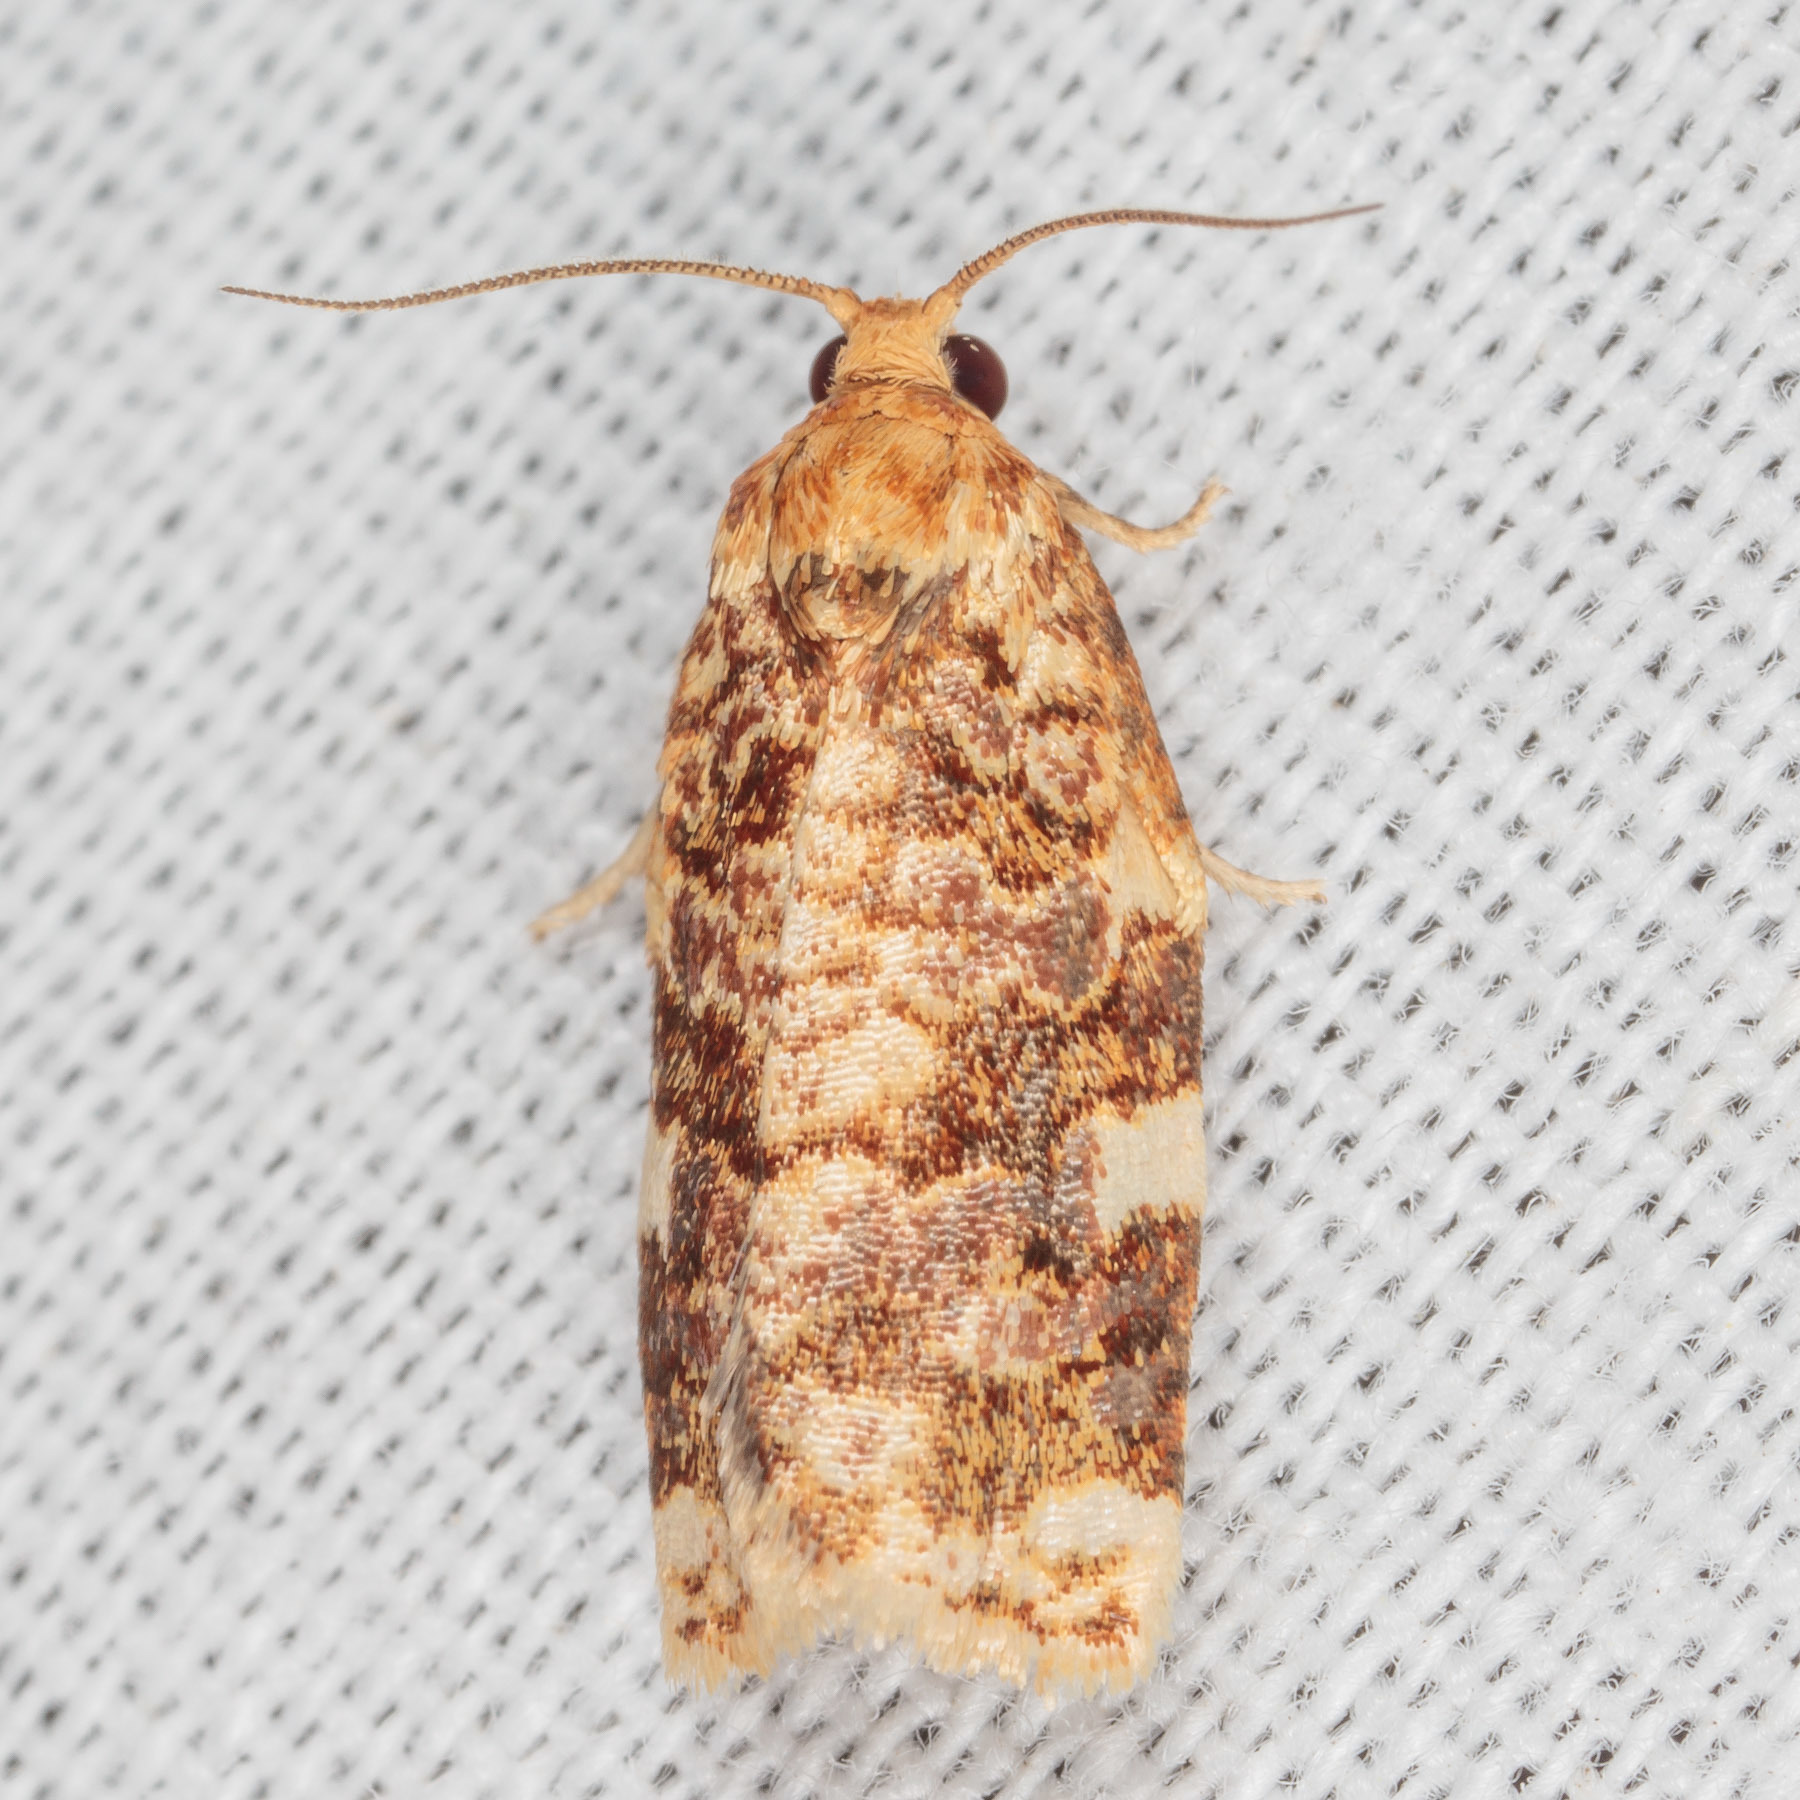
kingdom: Animalia
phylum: Arthropoda
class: Insecta
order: Lepidoptera
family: Tortricidae
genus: Archips
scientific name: Archips argyrospila
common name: Fruit-tree leafroller moth
